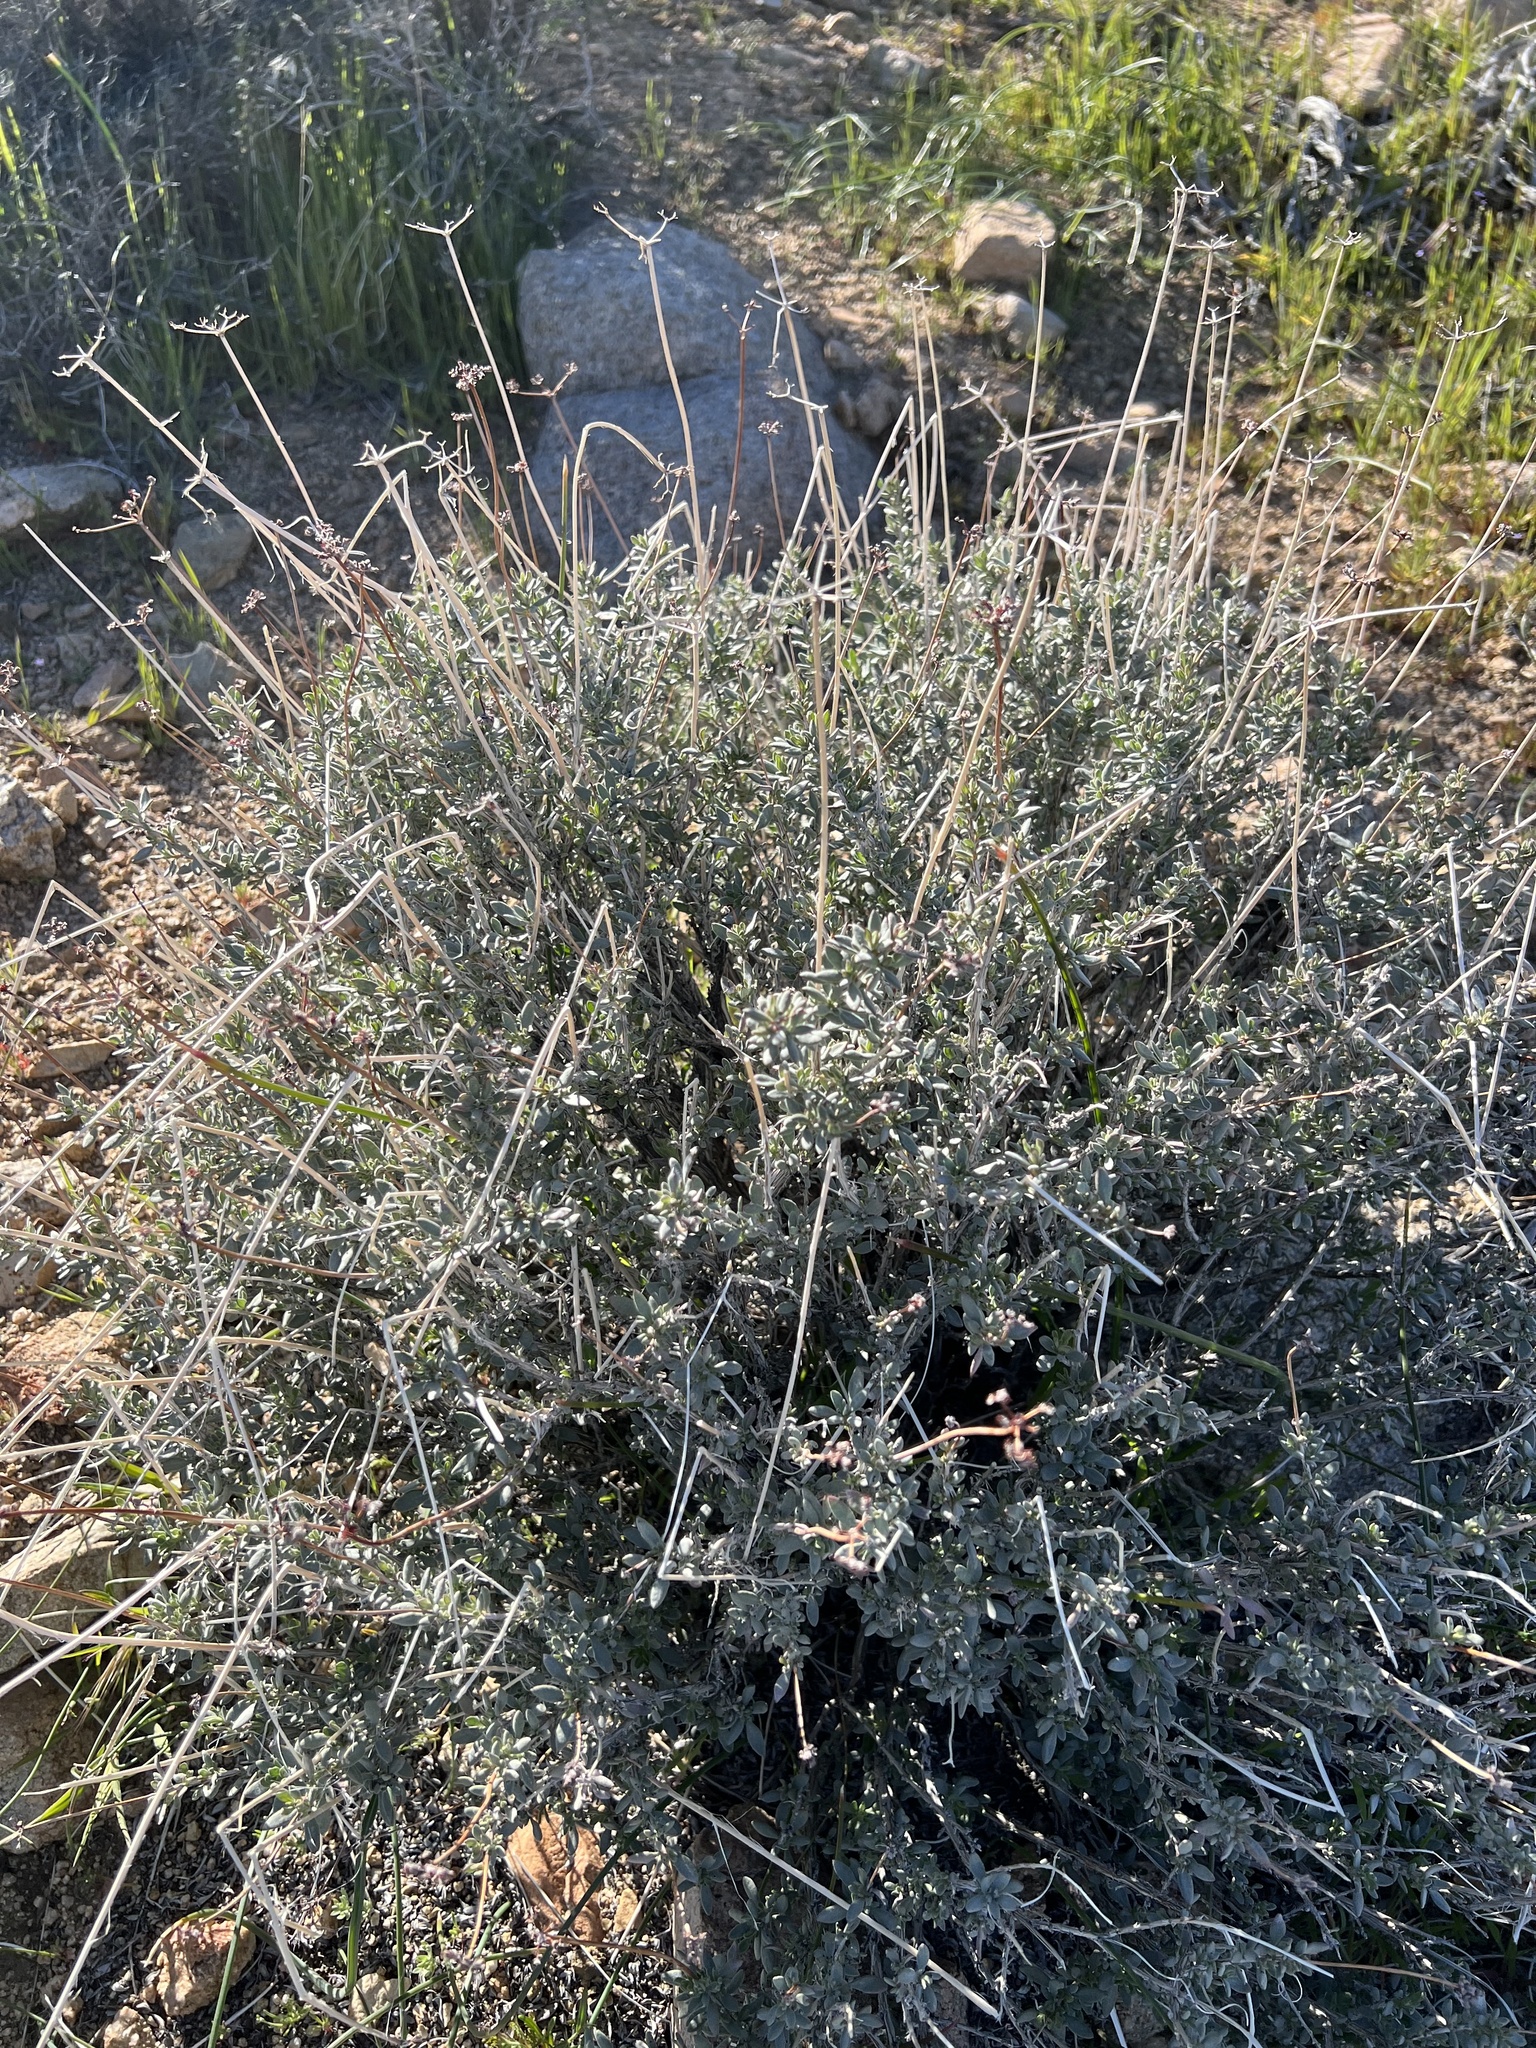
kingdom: Plantae
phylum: Tracheophyta
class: Magnoliopsida
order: Caryophyllales
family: Polygonaceae
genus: Eriogonum
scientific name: Eriogonum fasciculatum
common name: California wild buckwheat
